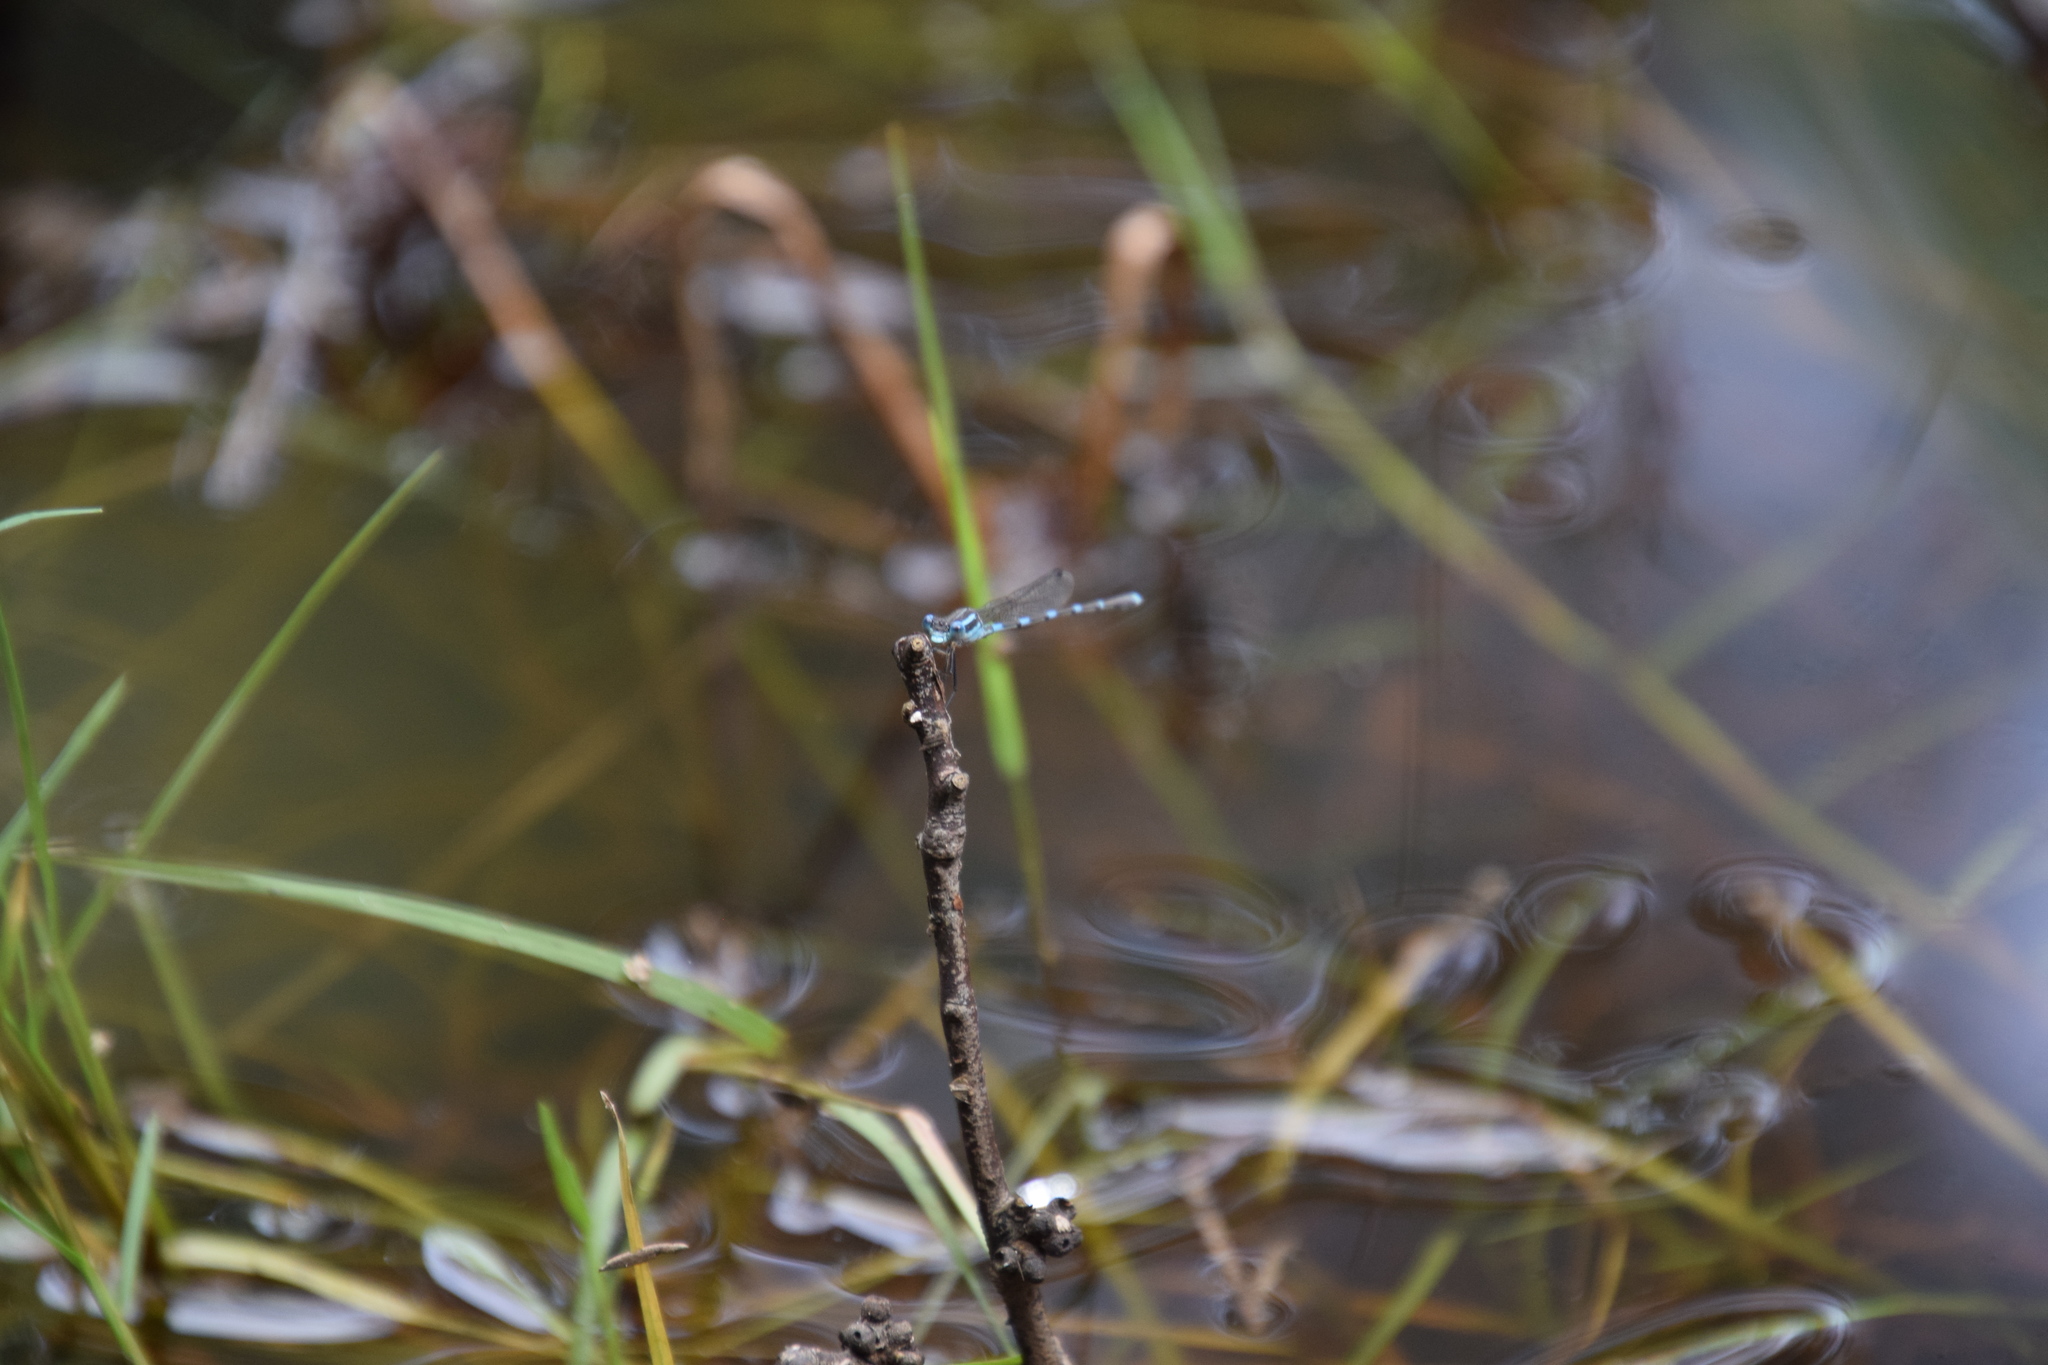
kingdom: Animalia
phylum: Arthropoda
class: Insecta
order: Odonata
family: Lestidae
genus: Austrolestes
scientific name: Austrolestes leda
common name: Wandering ringtail
